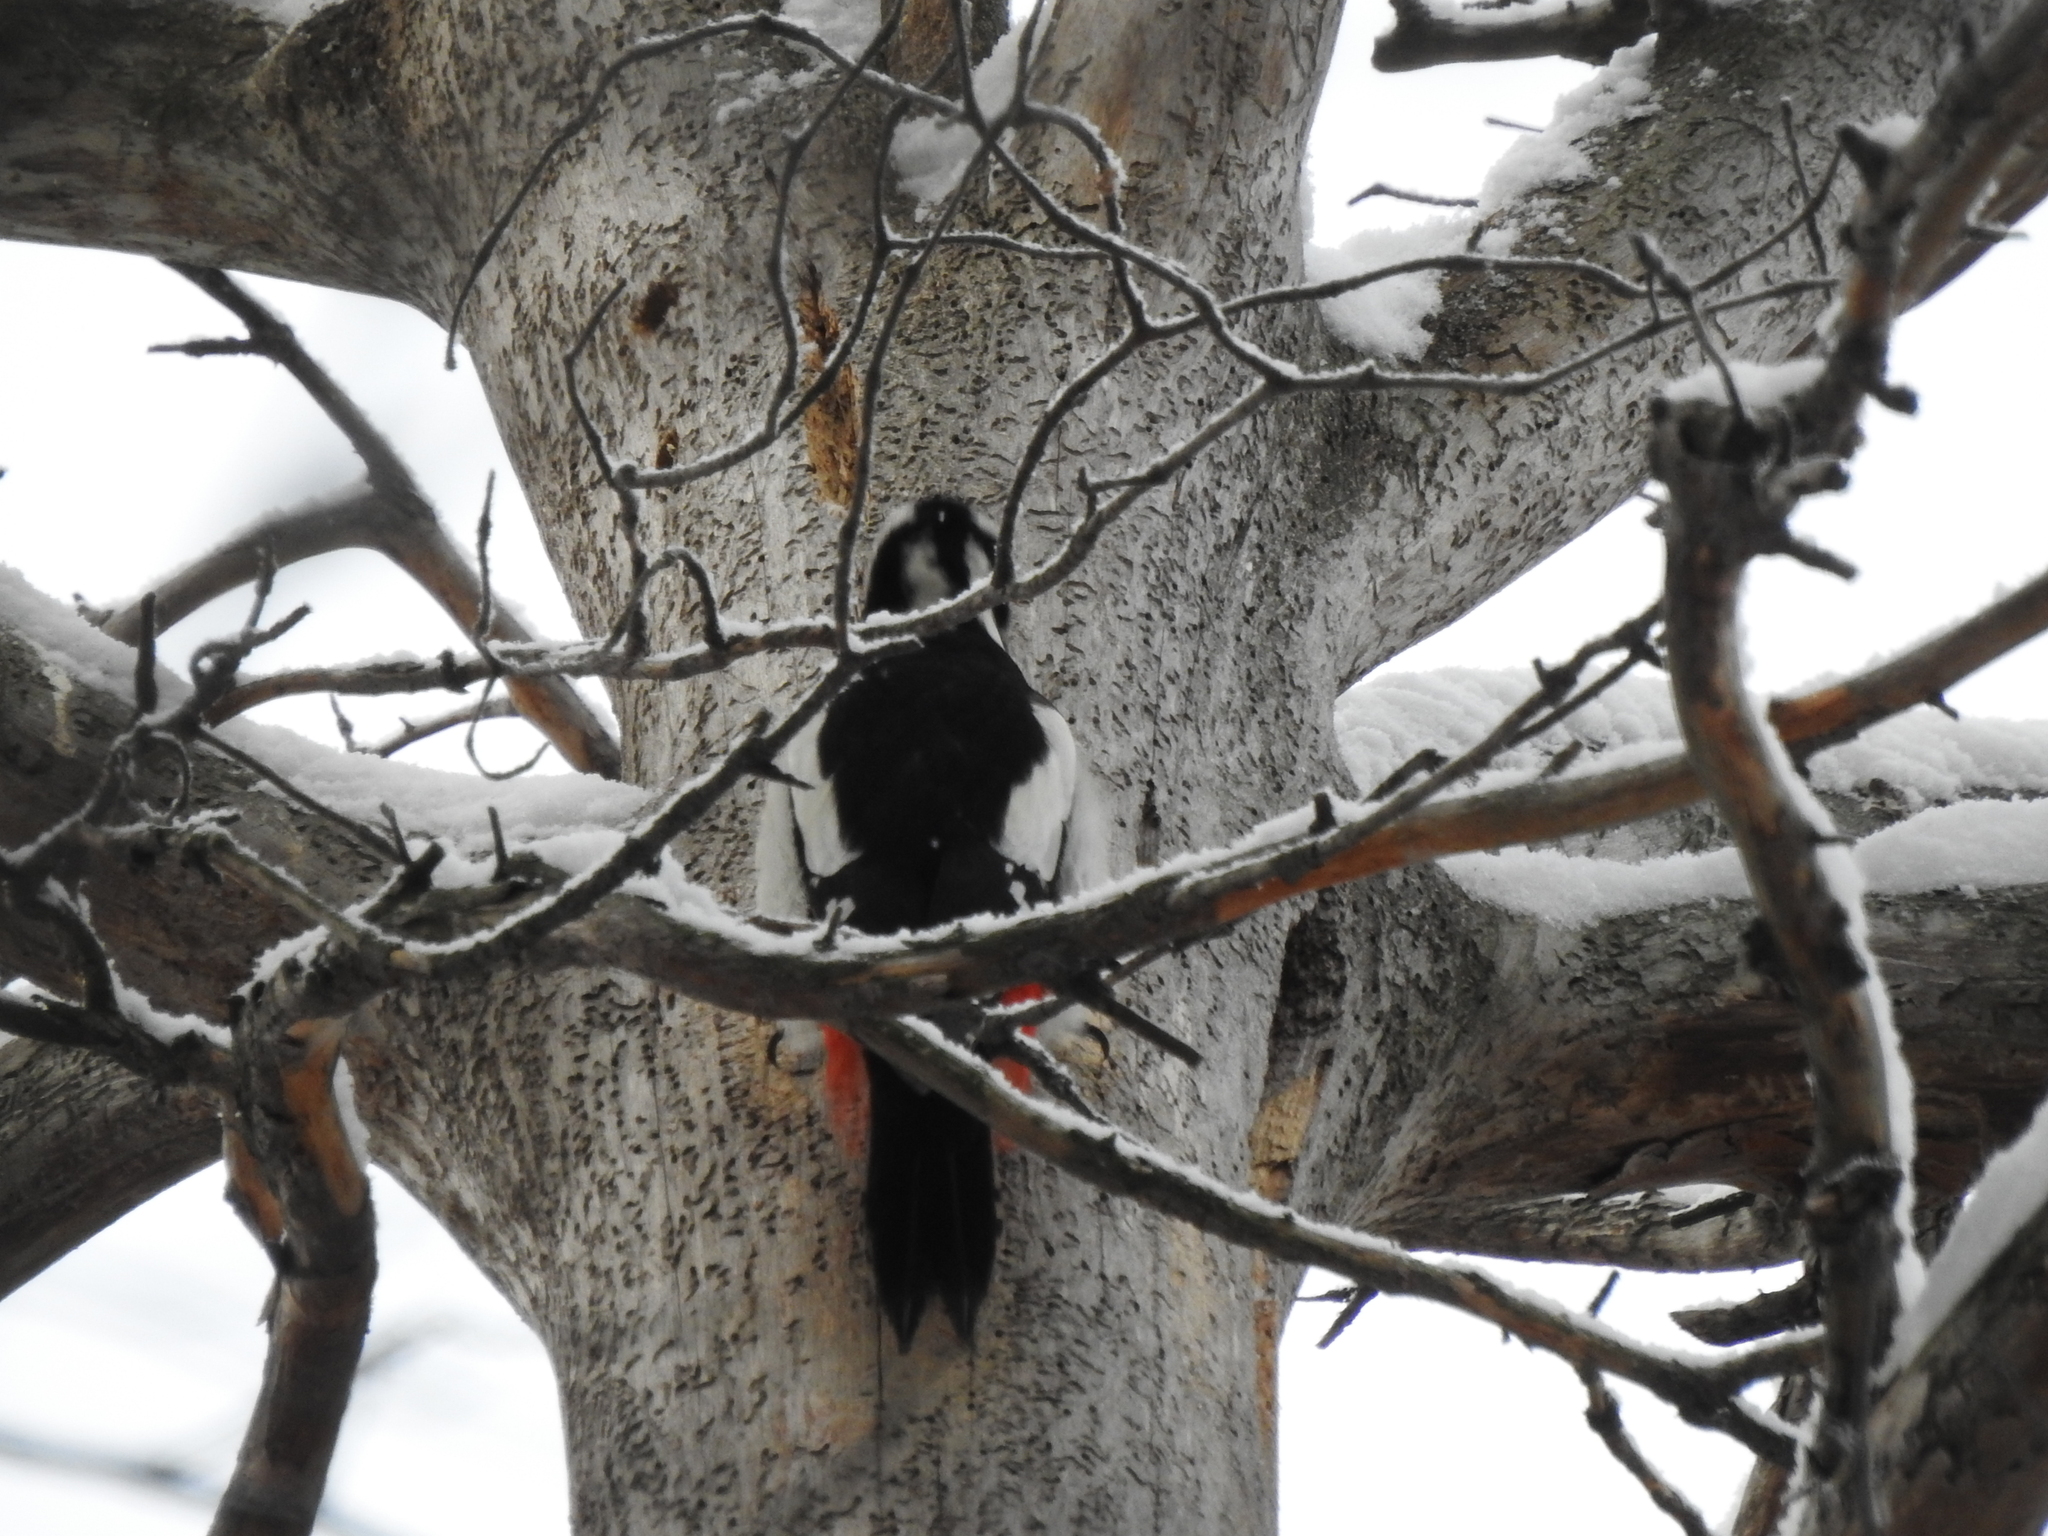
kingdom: Animalia
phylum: Chordata
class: Aves
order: Piciformes
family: Picidae
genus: Dendrocopos
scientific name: Dendrocopos major
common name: Great spotted woodpecker
